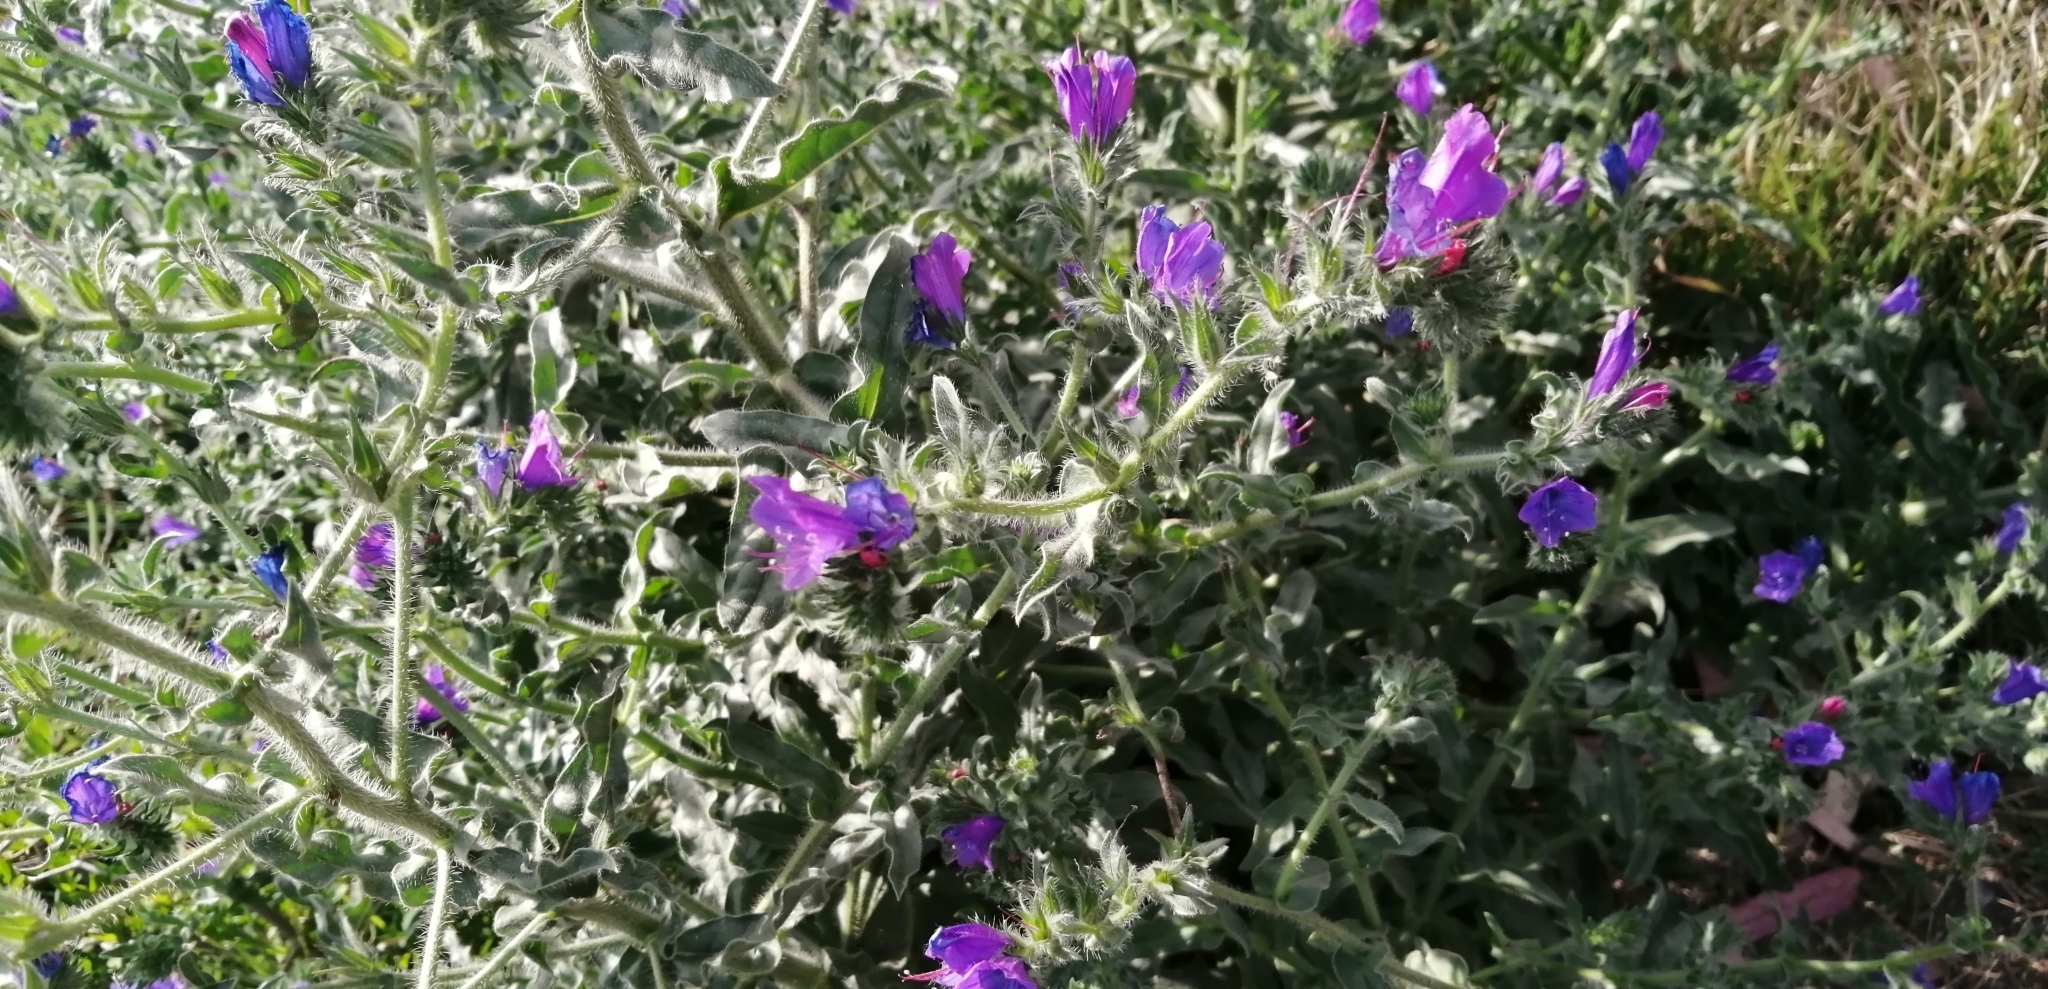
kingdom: Plantae
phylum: Tracheophyta
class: Magnoliopsida
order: Boraginales
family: Boraginaceae
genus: Echium
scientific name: Echium plantagineum
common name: Purple viper's-bugloss
